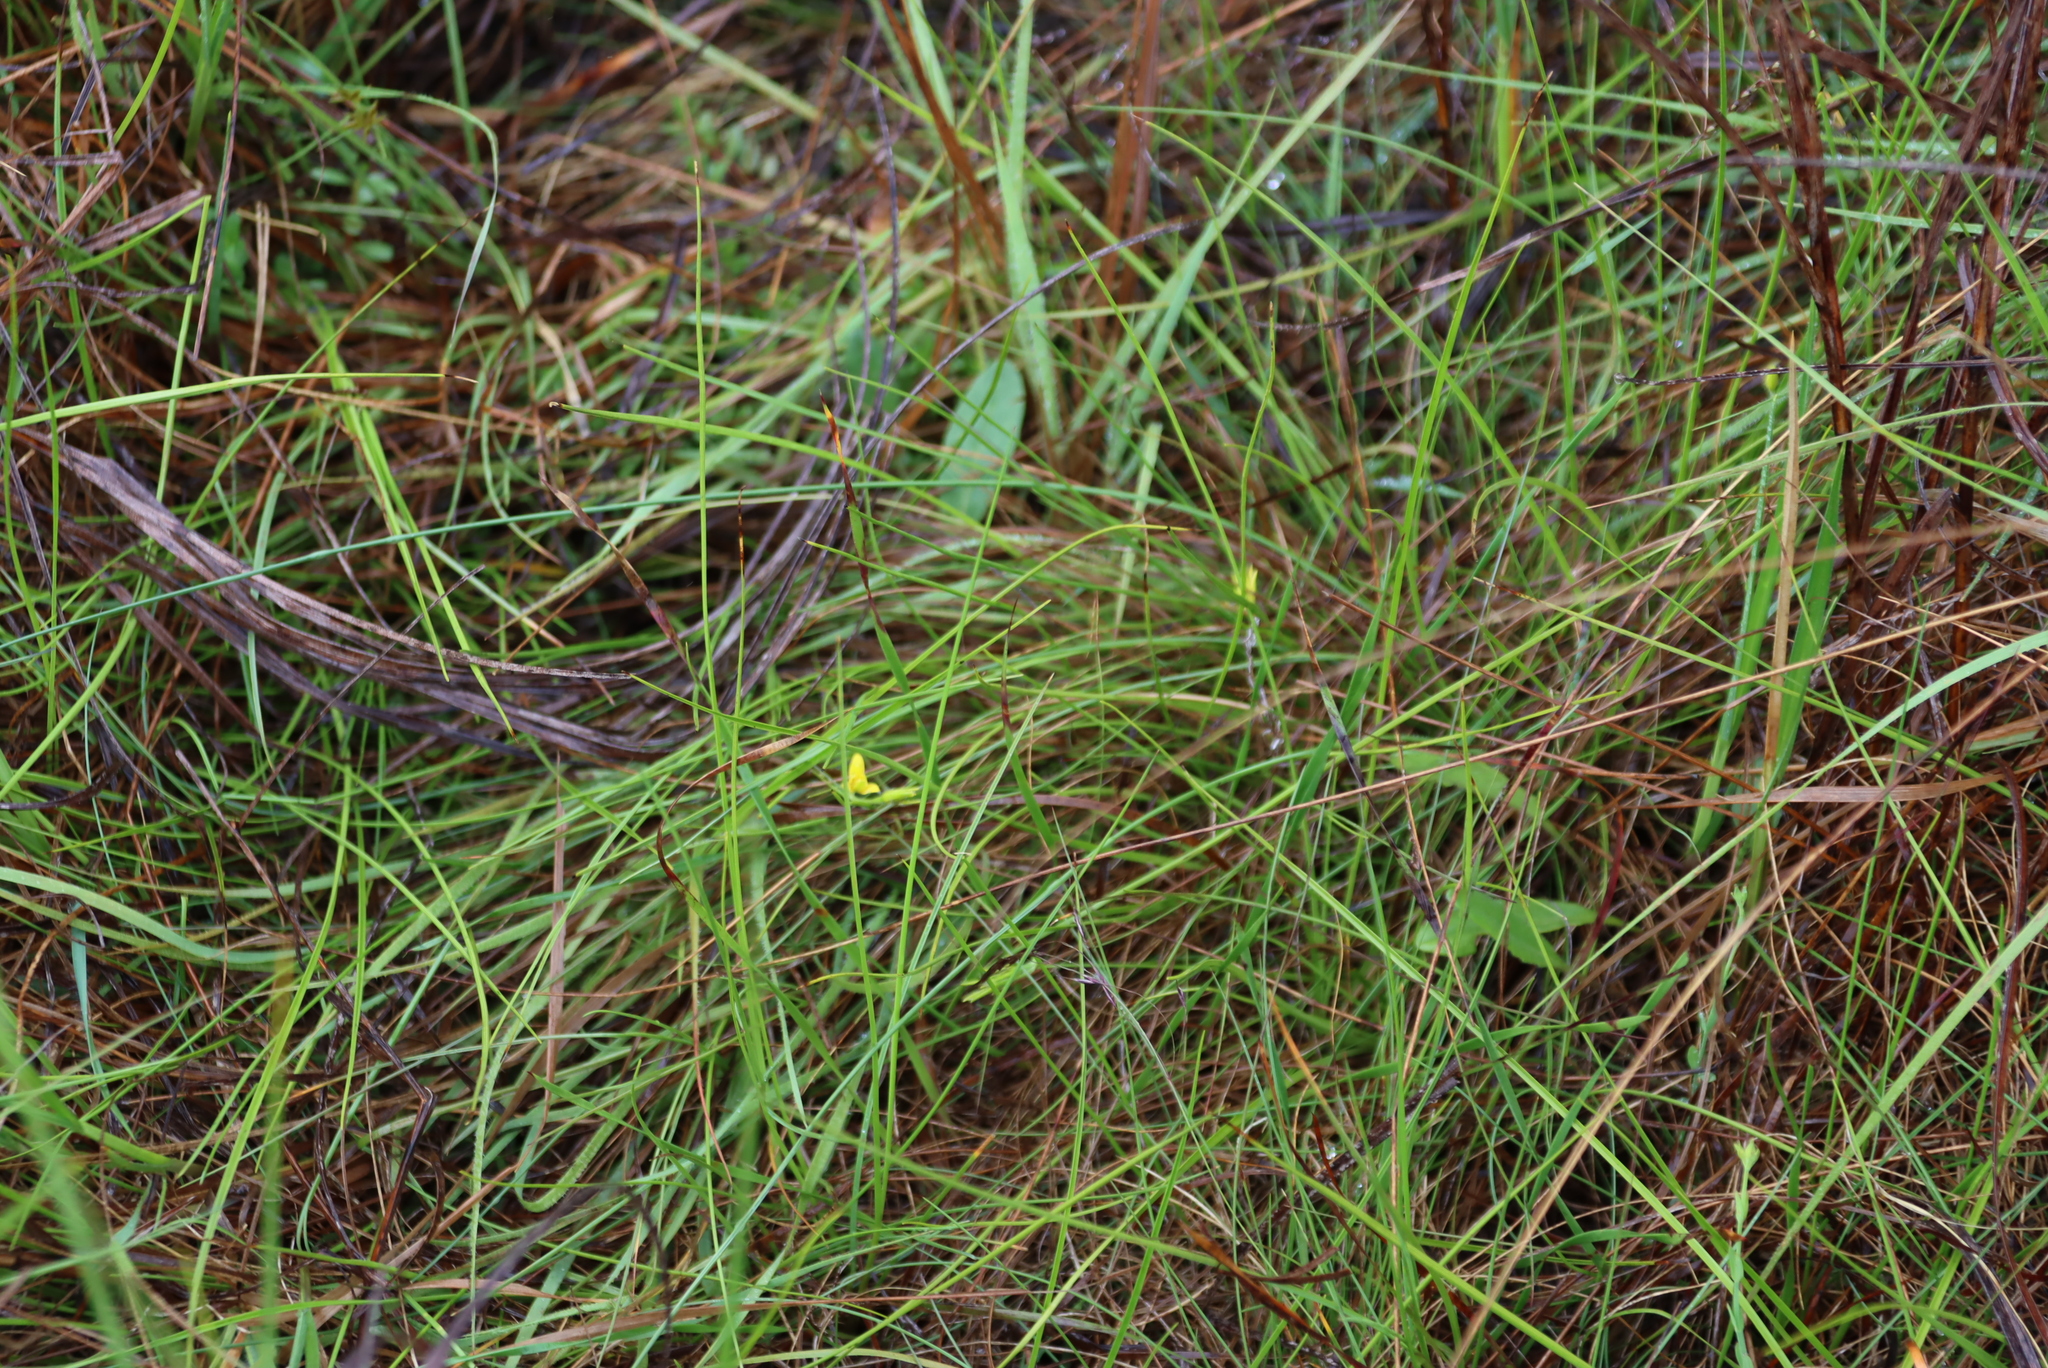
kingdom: Plantae
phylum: Tracheophyta
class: Magnoliopsida
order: Malpighiales
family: Hypericaceae
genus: Hypericum
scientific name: Hypericum lalandii
